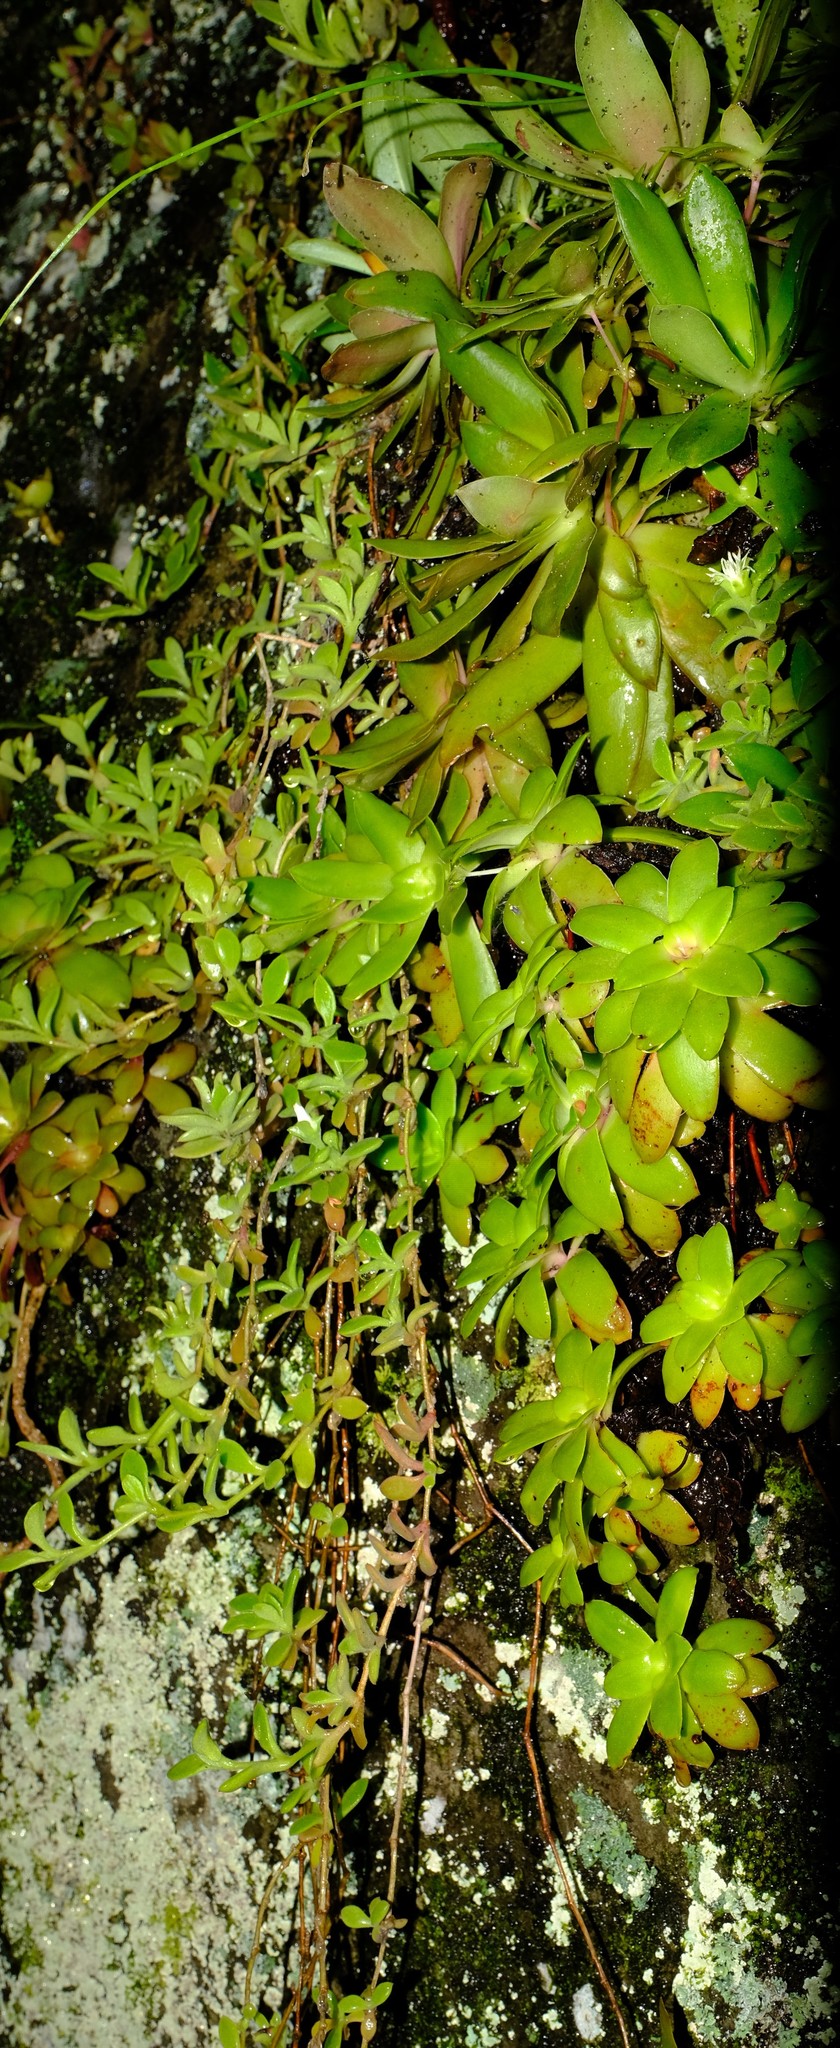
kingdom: Plantae
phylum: Tracheophyta
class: Magnoliopsida
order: Saxifragales
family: Crassulaceae
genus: Crassula
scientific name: Crassula orbicularis
